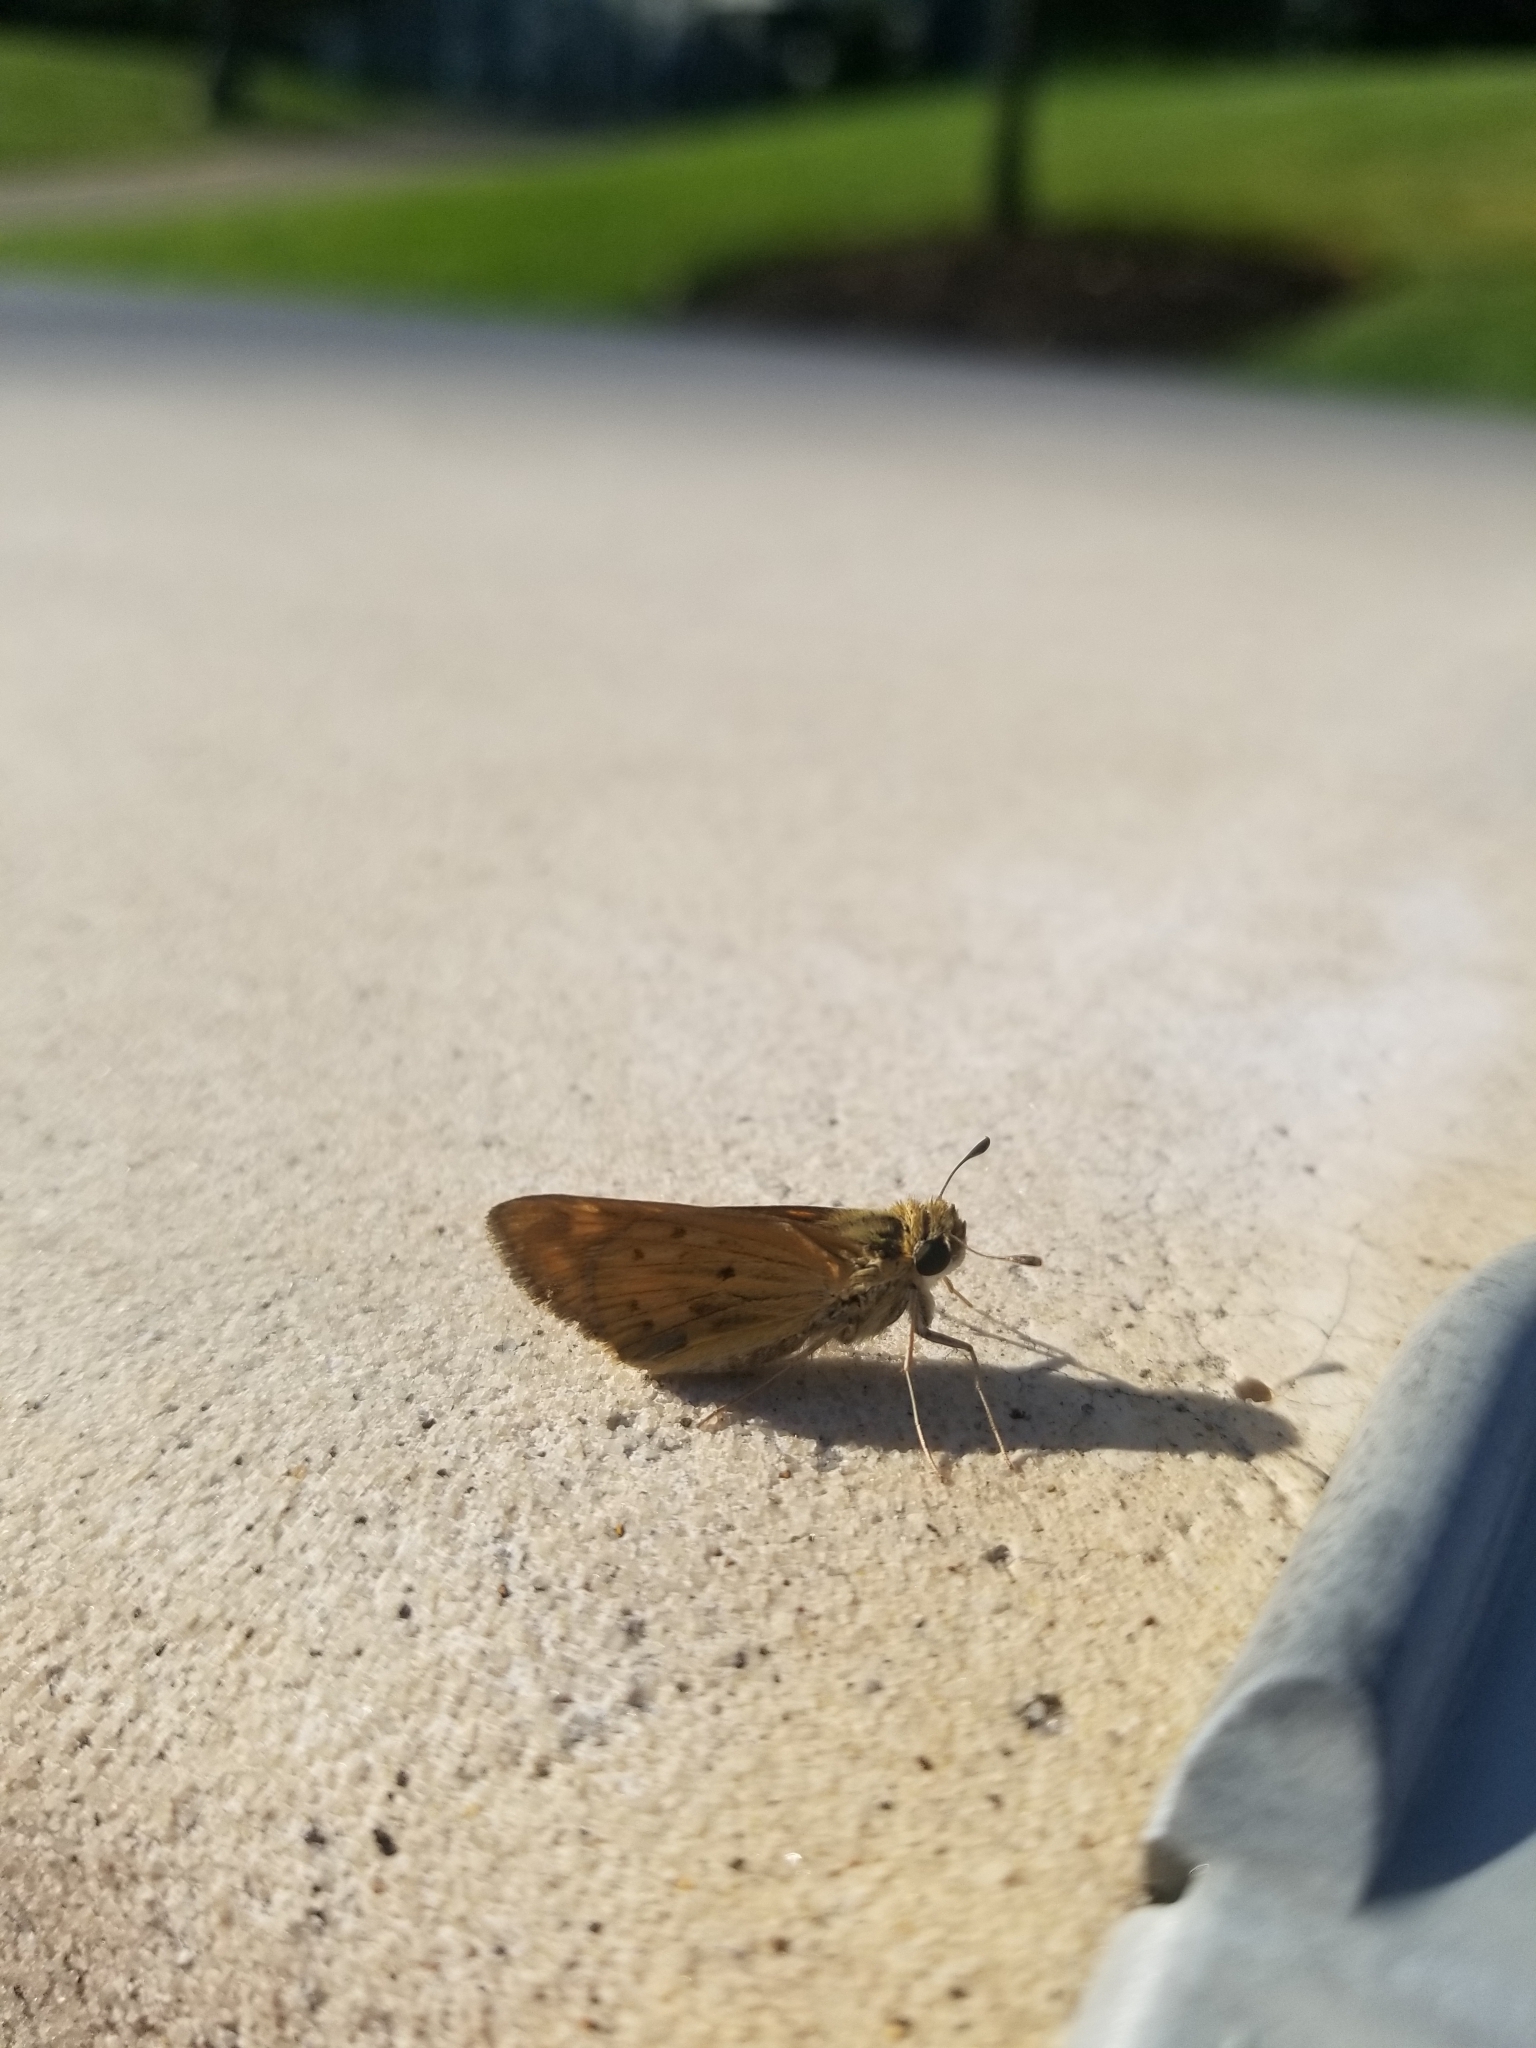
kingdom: Animalia
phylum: Arthropoda
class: Insecta
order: Lepidoptera
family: Hesperiidae
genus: Hylephila
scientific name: Hylephila phyleus
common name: Fiery skipper
